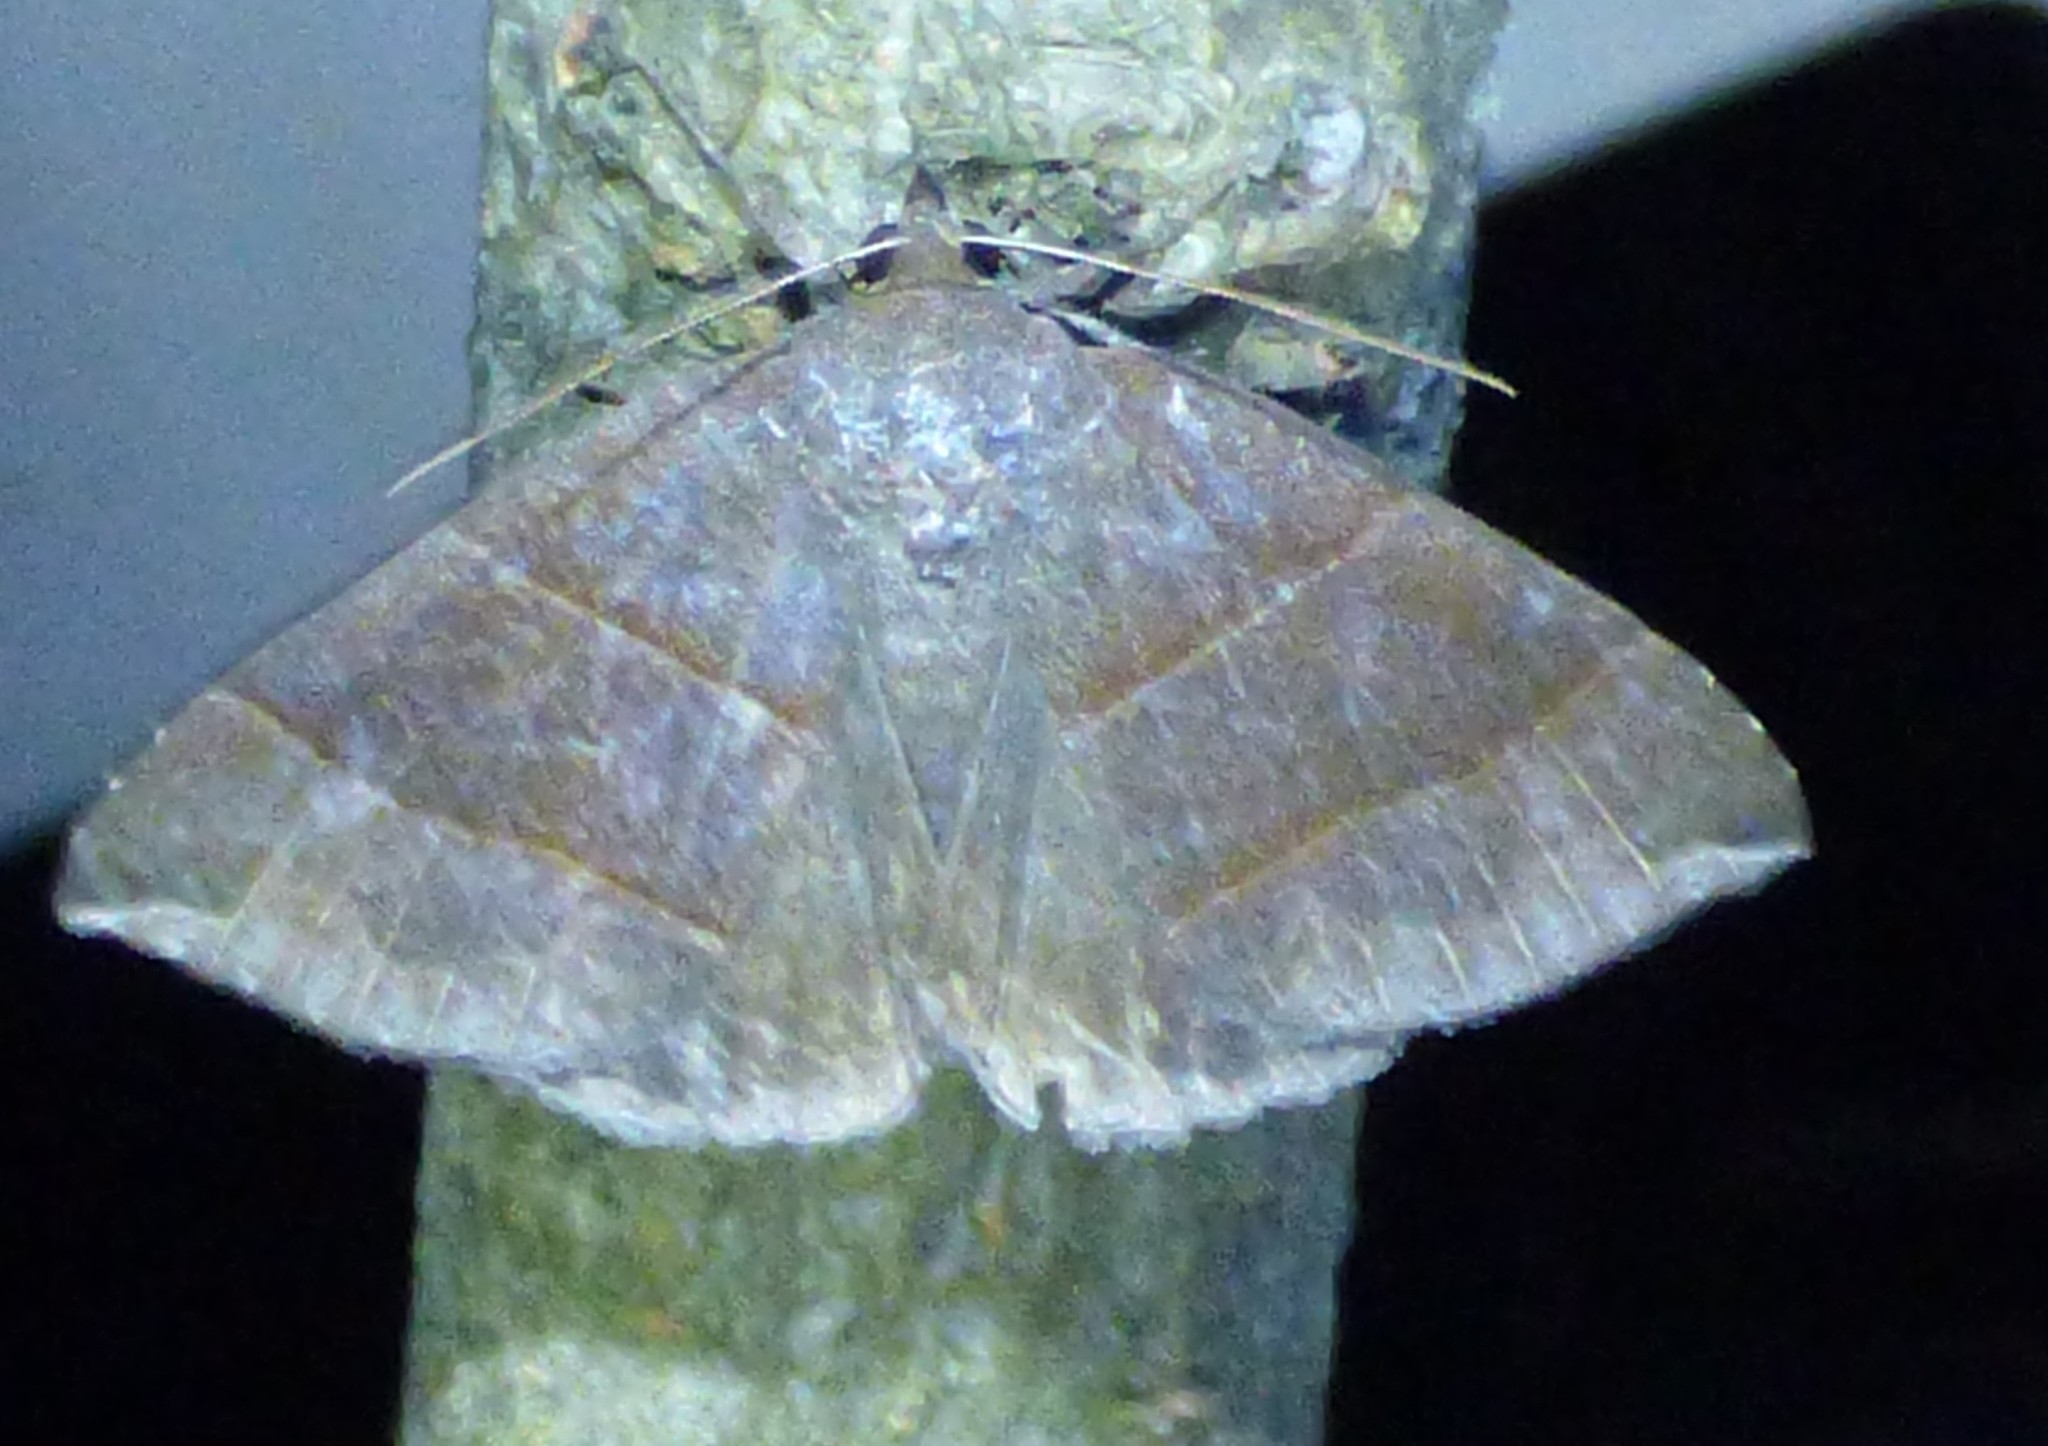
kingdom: Animalia
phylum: Arthropoda
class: Insecta
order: Lepidoptera
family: Erebidae
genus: Parallelia
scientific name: Parallelia bistriaris
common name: Maple looper moth
